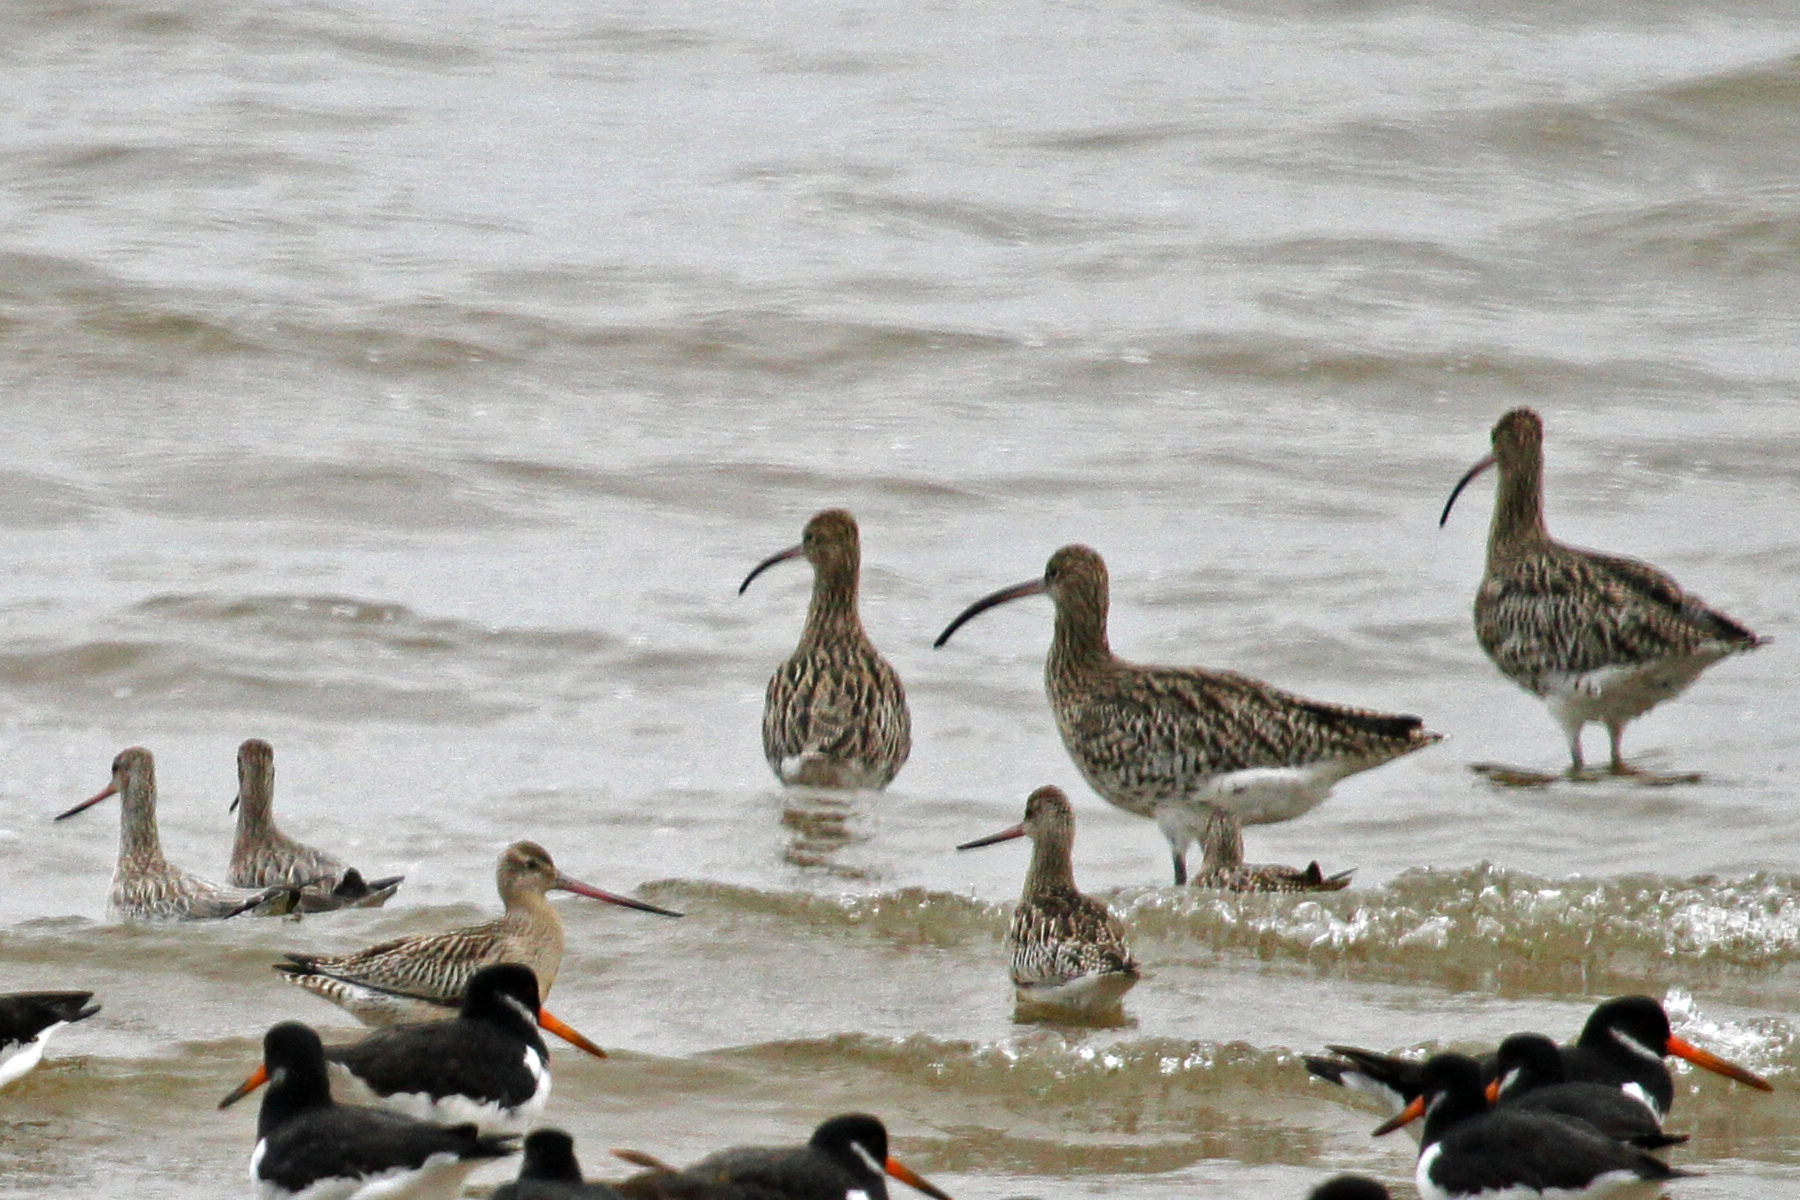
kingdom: Animalia
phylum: Chordata
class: Aves
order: Charadriiformes
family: Scolopacidae
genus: Limosa
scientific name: Limosa lapponica
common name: Bar-tailed godwit
